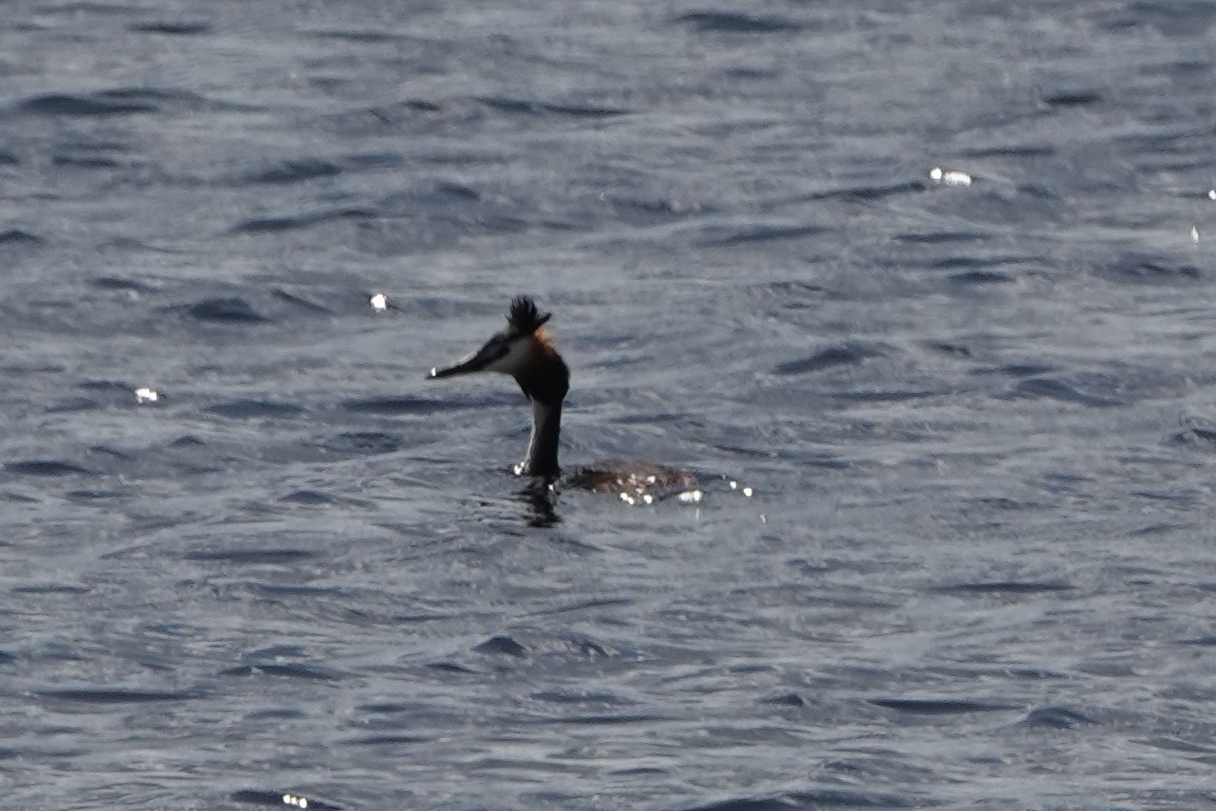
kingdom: Animalia
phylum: Chordata
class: Aves
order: Podicipediformes
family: Podicipedidae
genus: Podiceps
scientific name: Podiceps cristatus
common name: Great crested grebe
